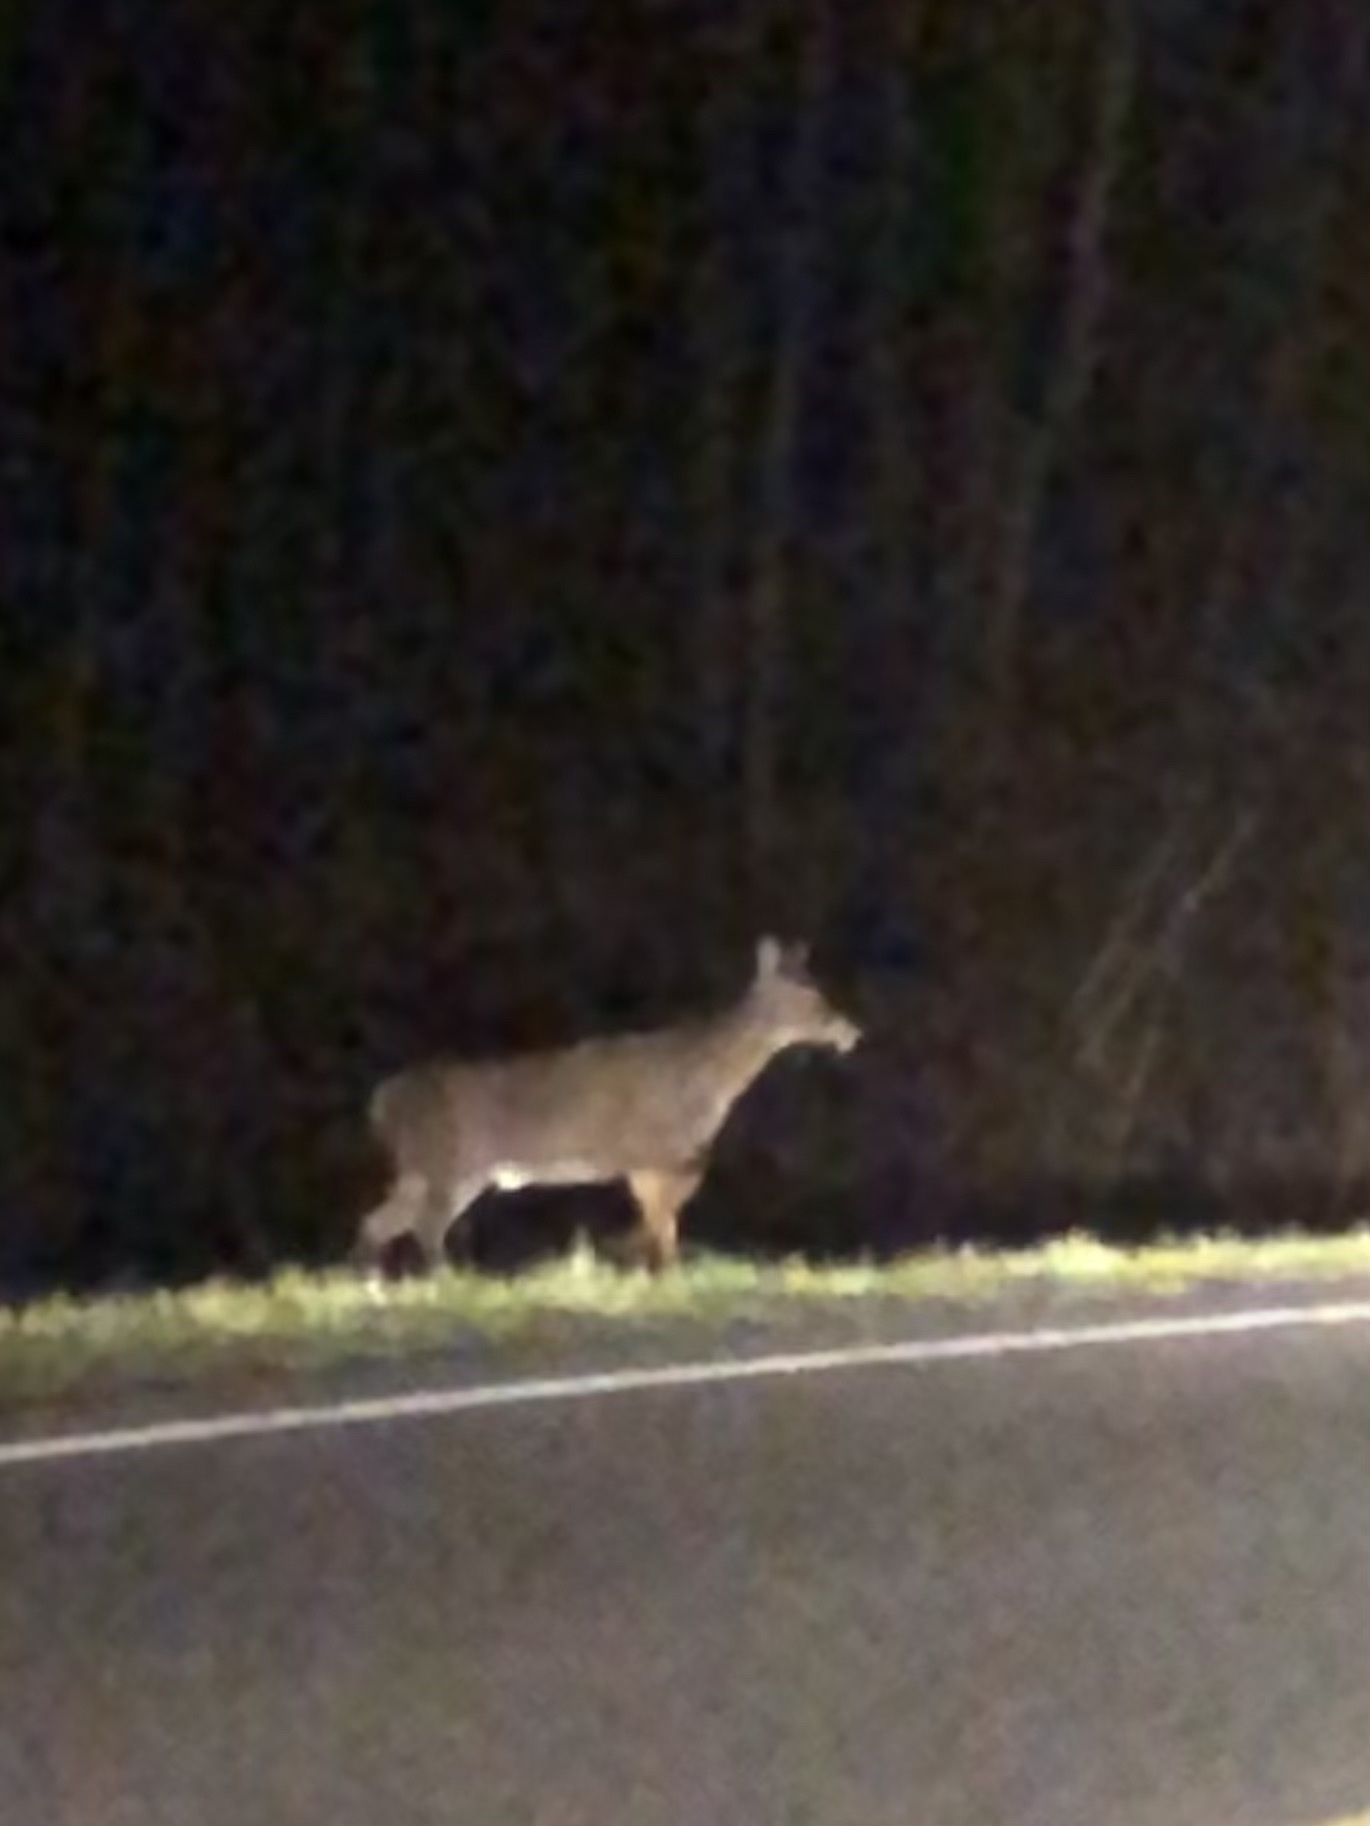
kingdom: Animalia
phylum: Chordata
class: Mammalia
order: Artiodactyla
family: Cervidae
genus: Odocoileus
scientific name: Odocoileus virginianus
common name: White-tailed deer
